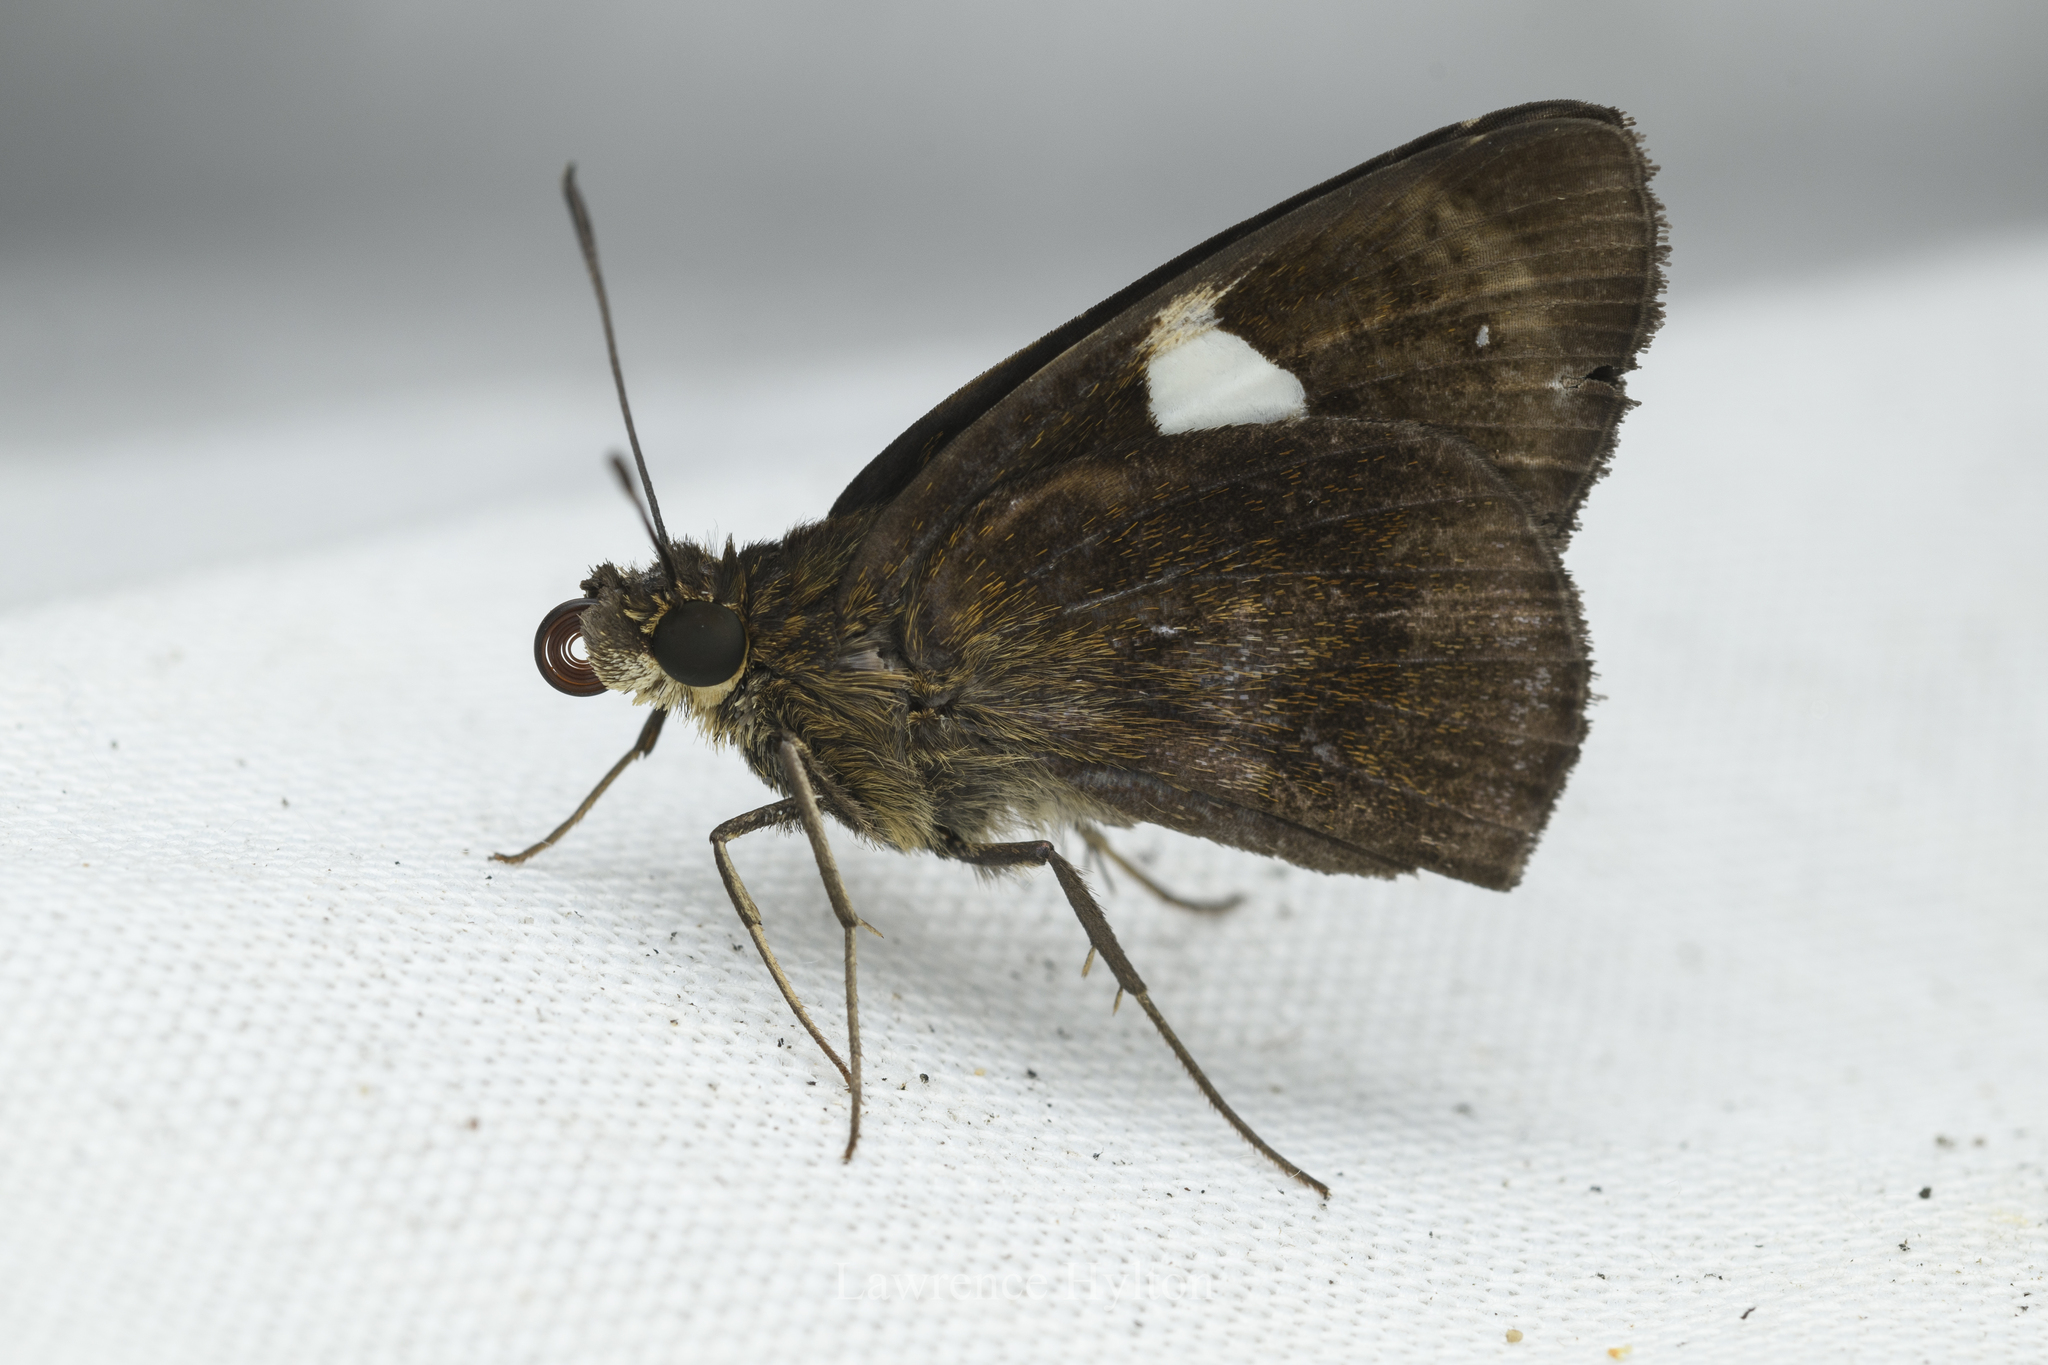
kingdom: Animalia
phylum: Arthropoda
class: Insecta
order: Lepidoptera
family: Hesperiidae
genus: Notocrypta
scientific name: Notocrypta paralysos
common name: Common banded demon
